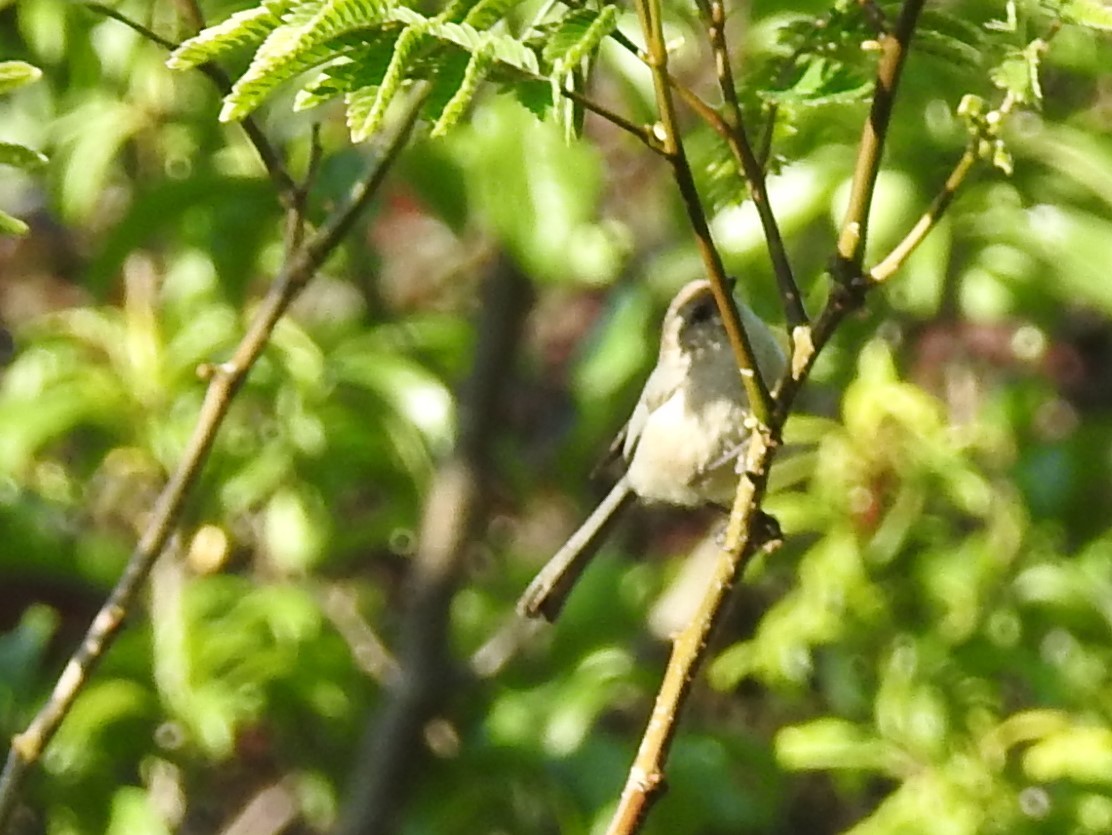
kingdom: Animalia
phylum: Chordata
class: Aves
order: Passeriformes
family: Aegithalidae
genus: Psaltriparus
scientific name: Psaltriparus minimus
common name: American bushtit
